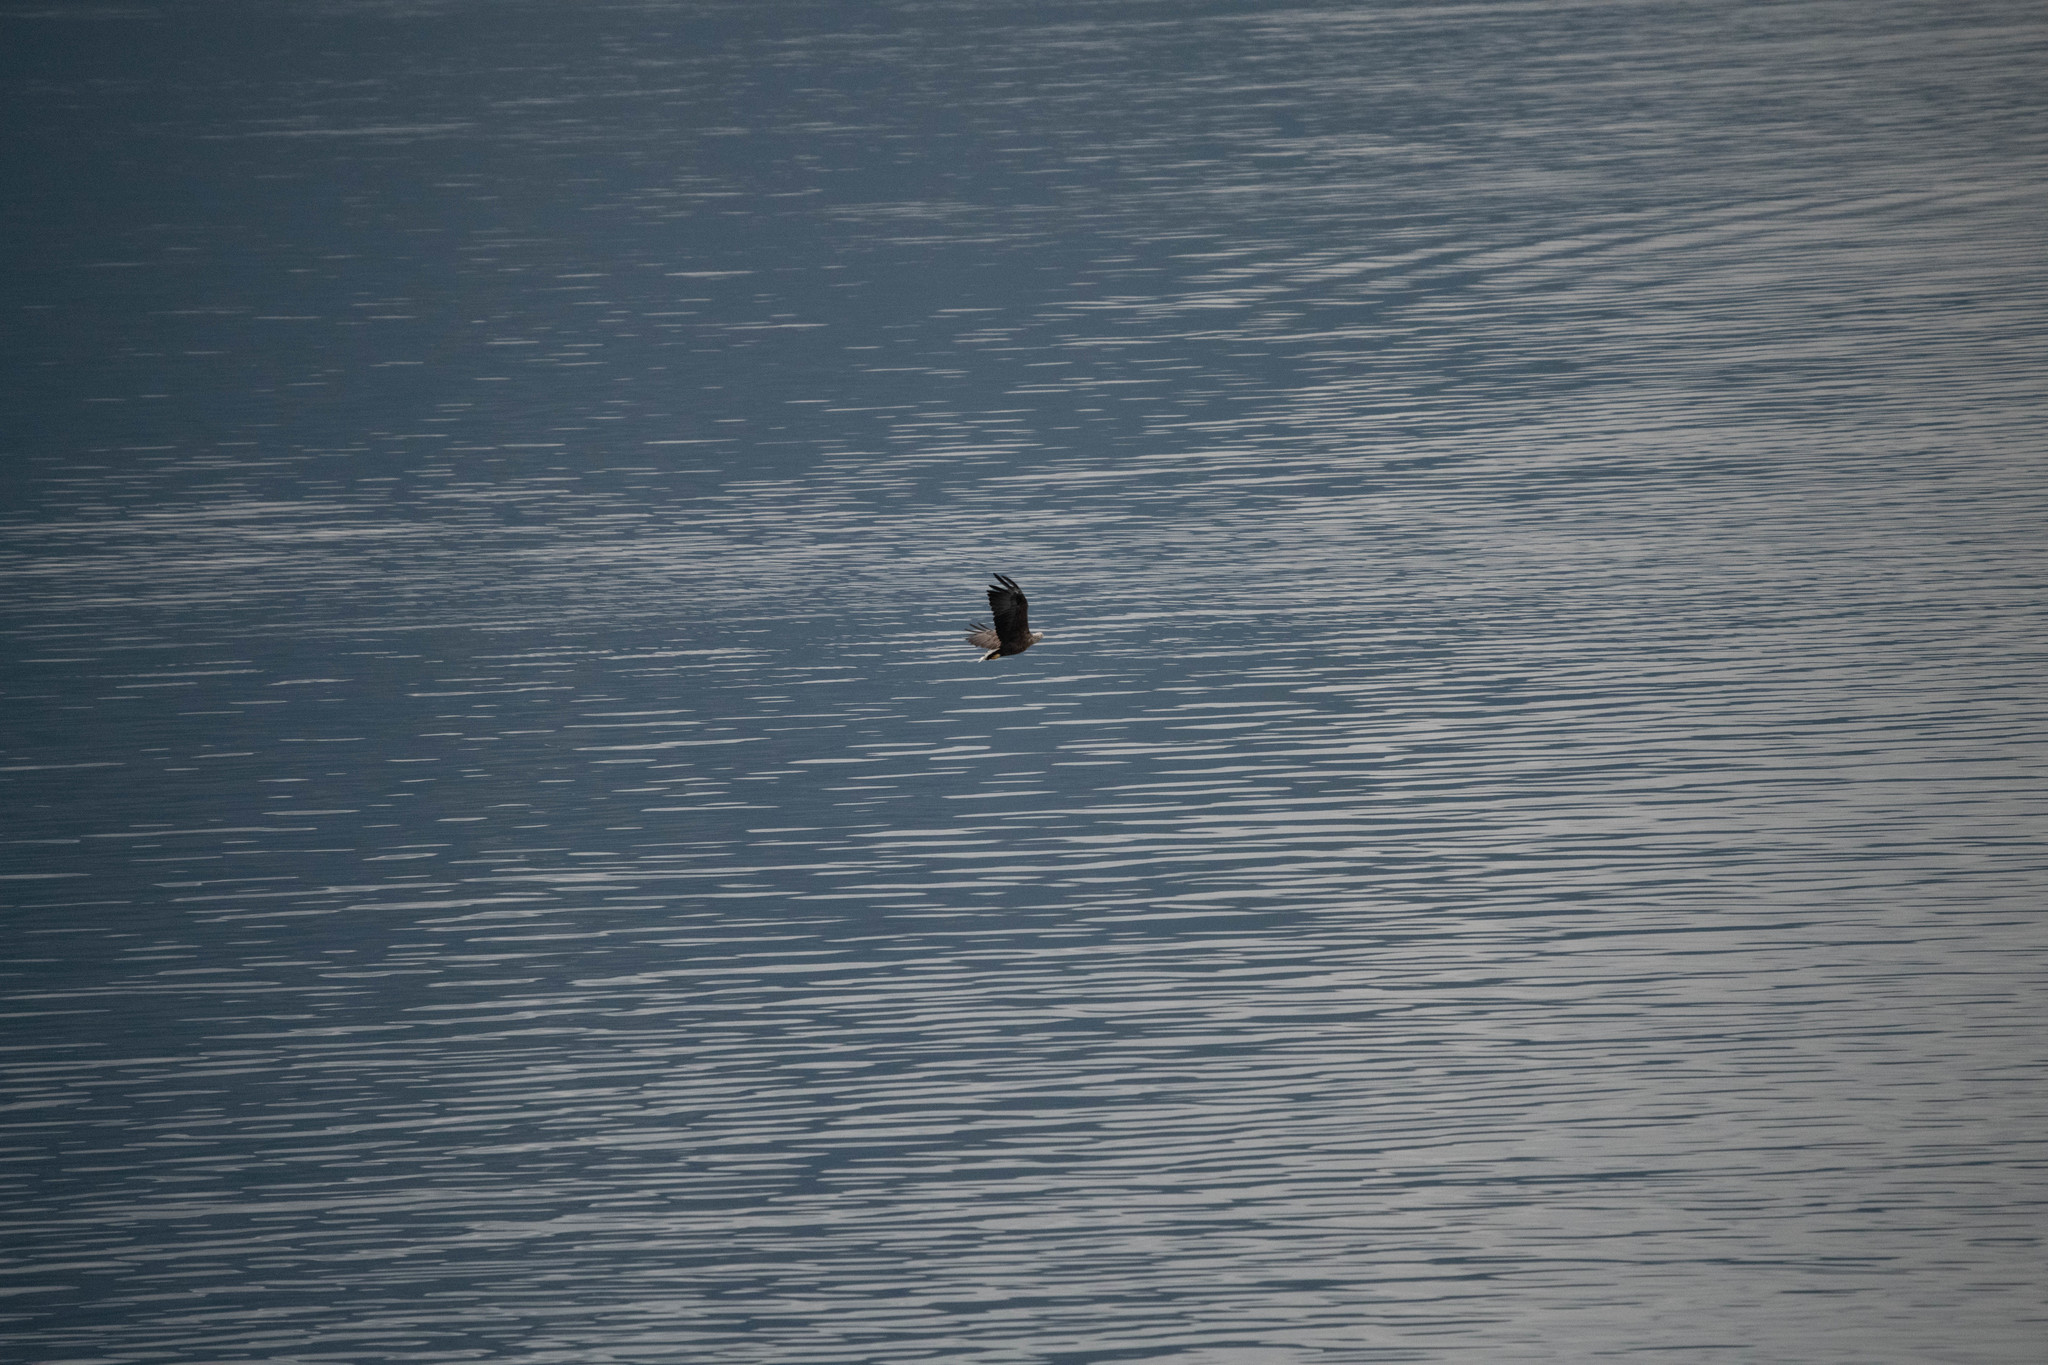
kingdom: Animalia
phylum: Chordata
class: Aves
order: Accipitriformes
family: Accipitridae
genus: Haliaeetus
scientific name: Haliaeetus albicilla
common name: White-tailed eagle
